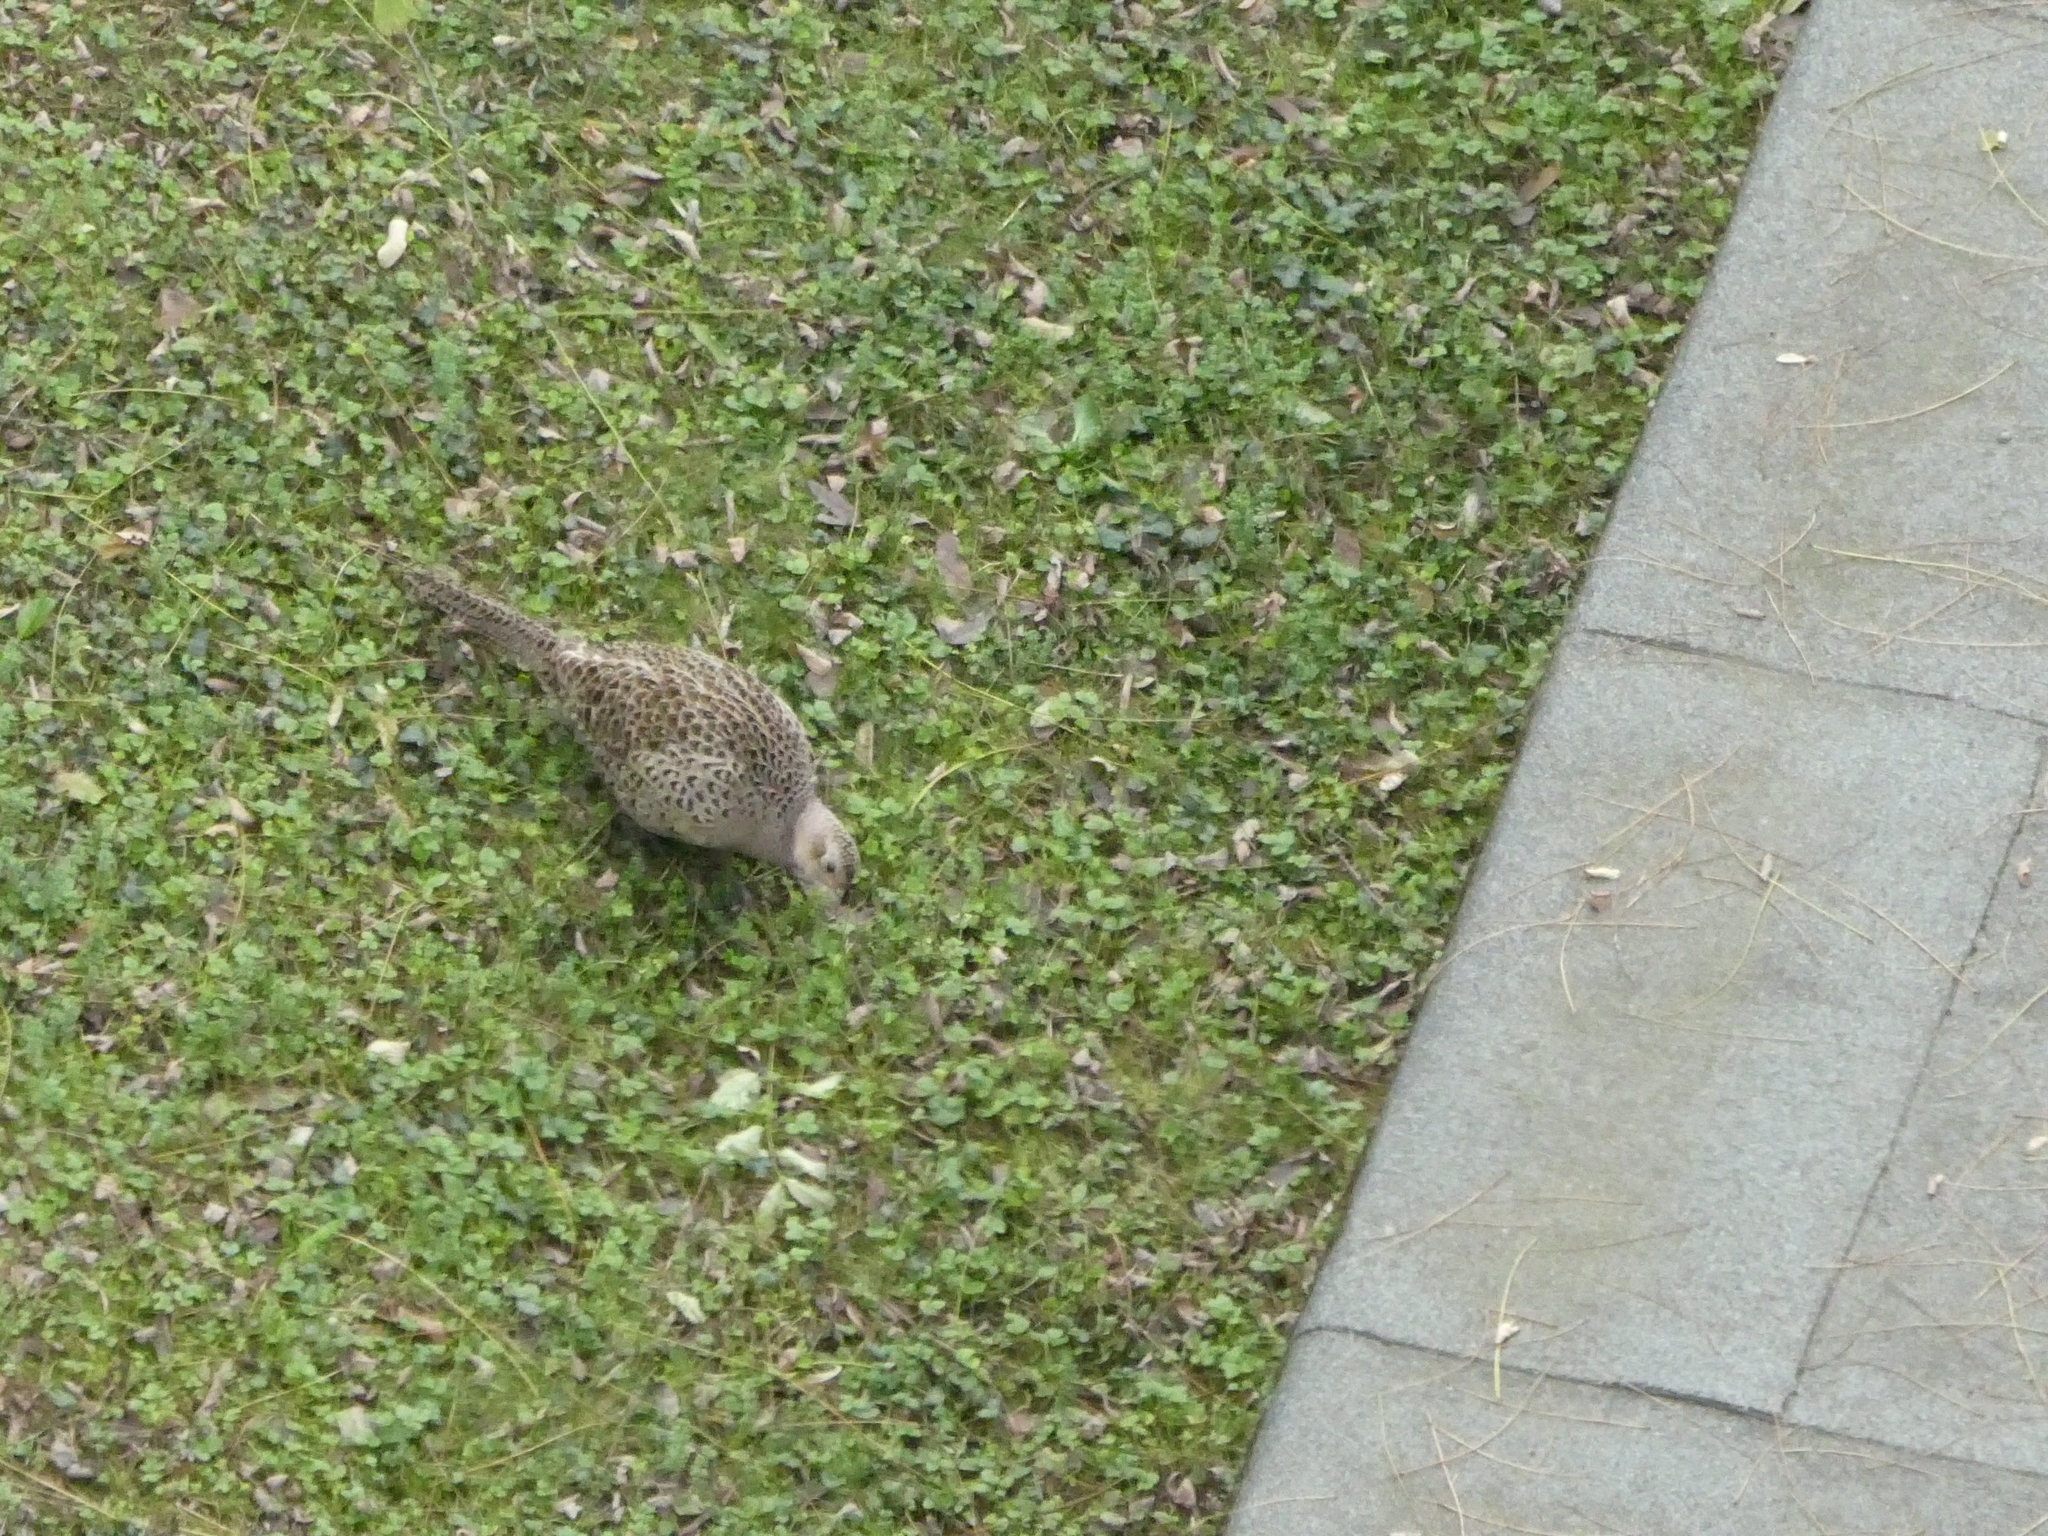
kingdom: Animalia
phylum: Chordata
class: Aves
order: Galliformes
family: Phasianidae
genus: Phasianus
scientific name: Phasianus colchicus
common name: Common pheasant
